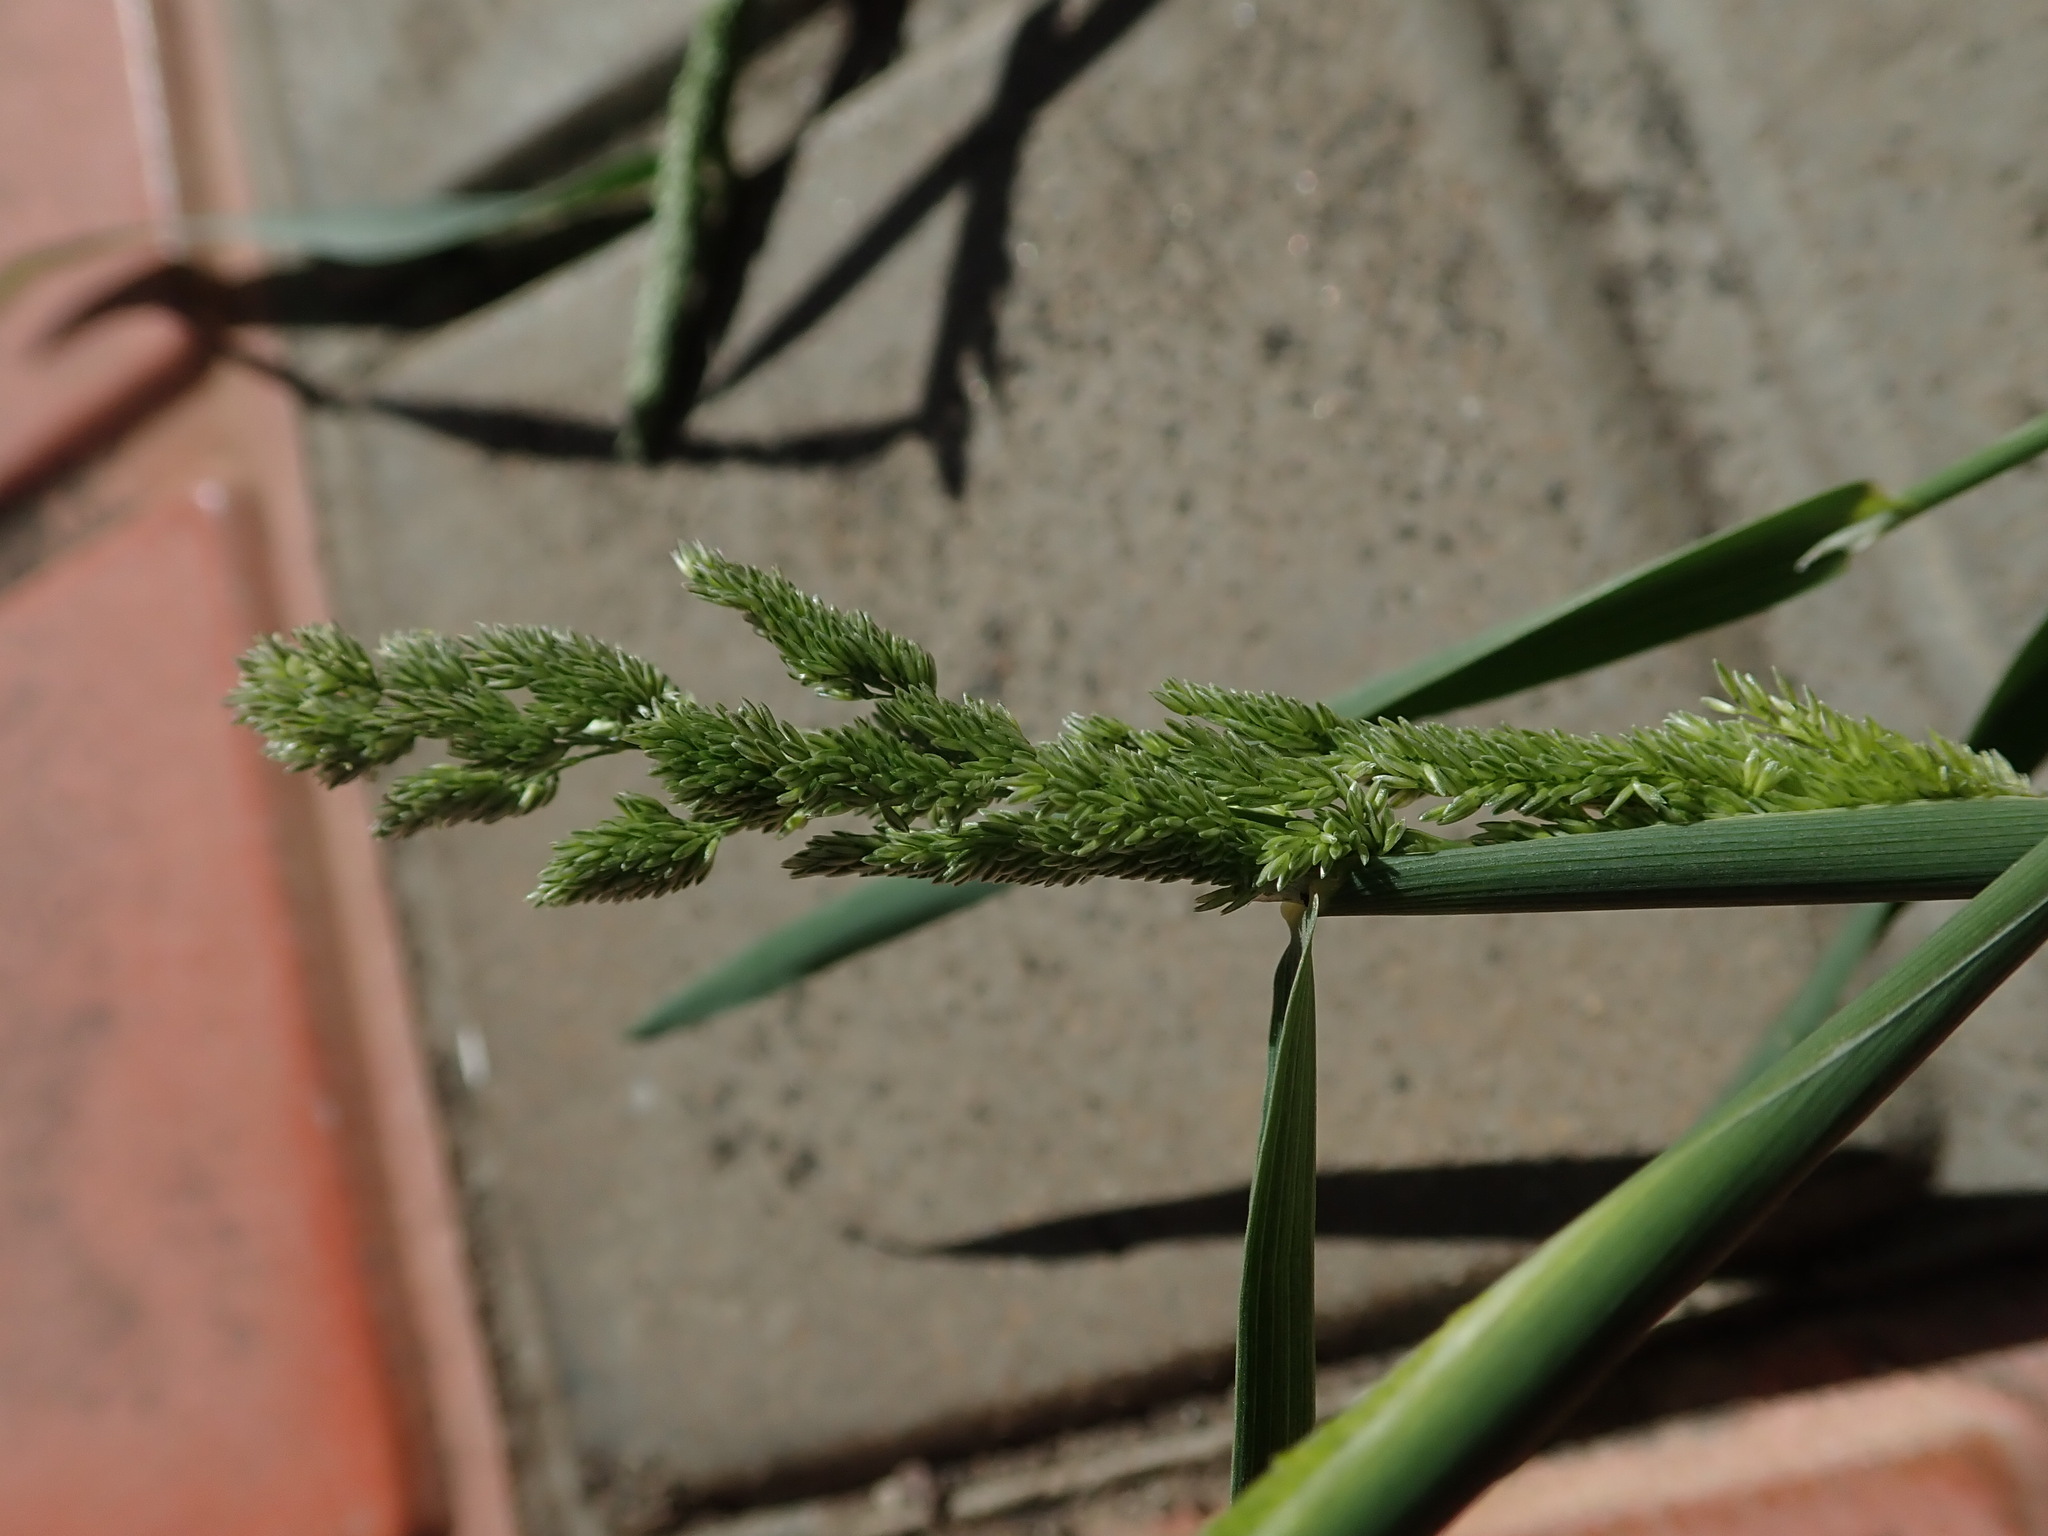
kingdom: Plantae
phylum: Tracheophyta
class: Liliopsida
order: Poales
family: Poaceae
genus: Polypogon
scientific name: Polypogon viridis
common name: Water bent
